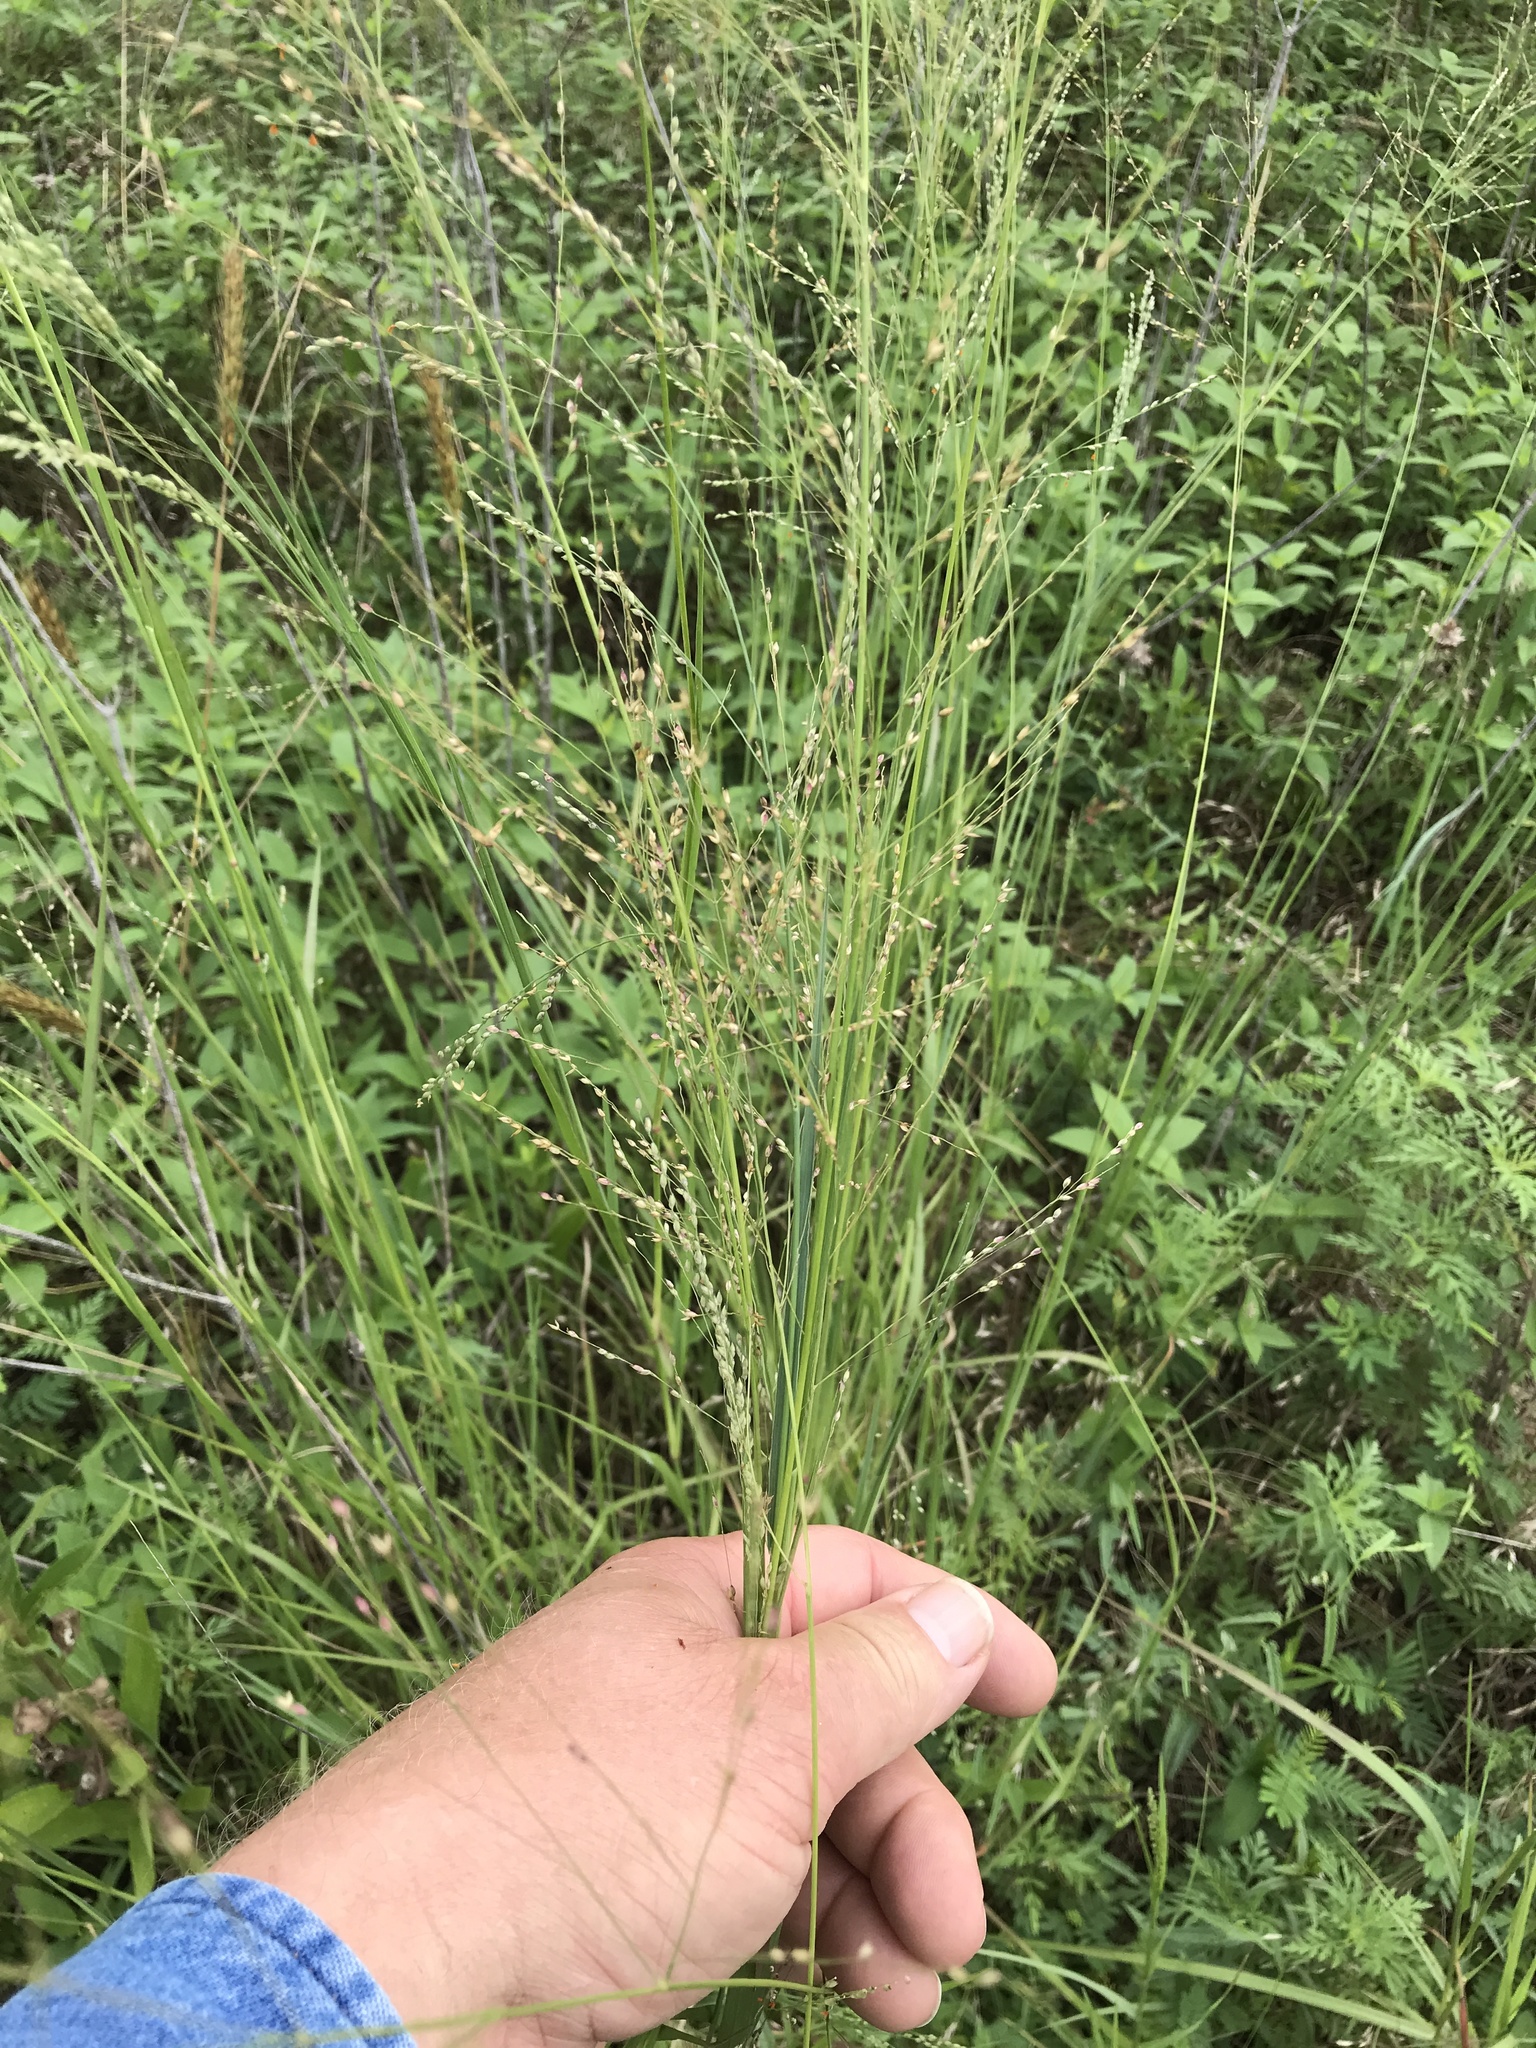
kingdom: Plantae
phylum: Tracheophyta
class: Liliopsida
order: Poales
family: Poaceae
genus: Panicum
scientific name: Panicum coloratum
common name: Kleingrass
